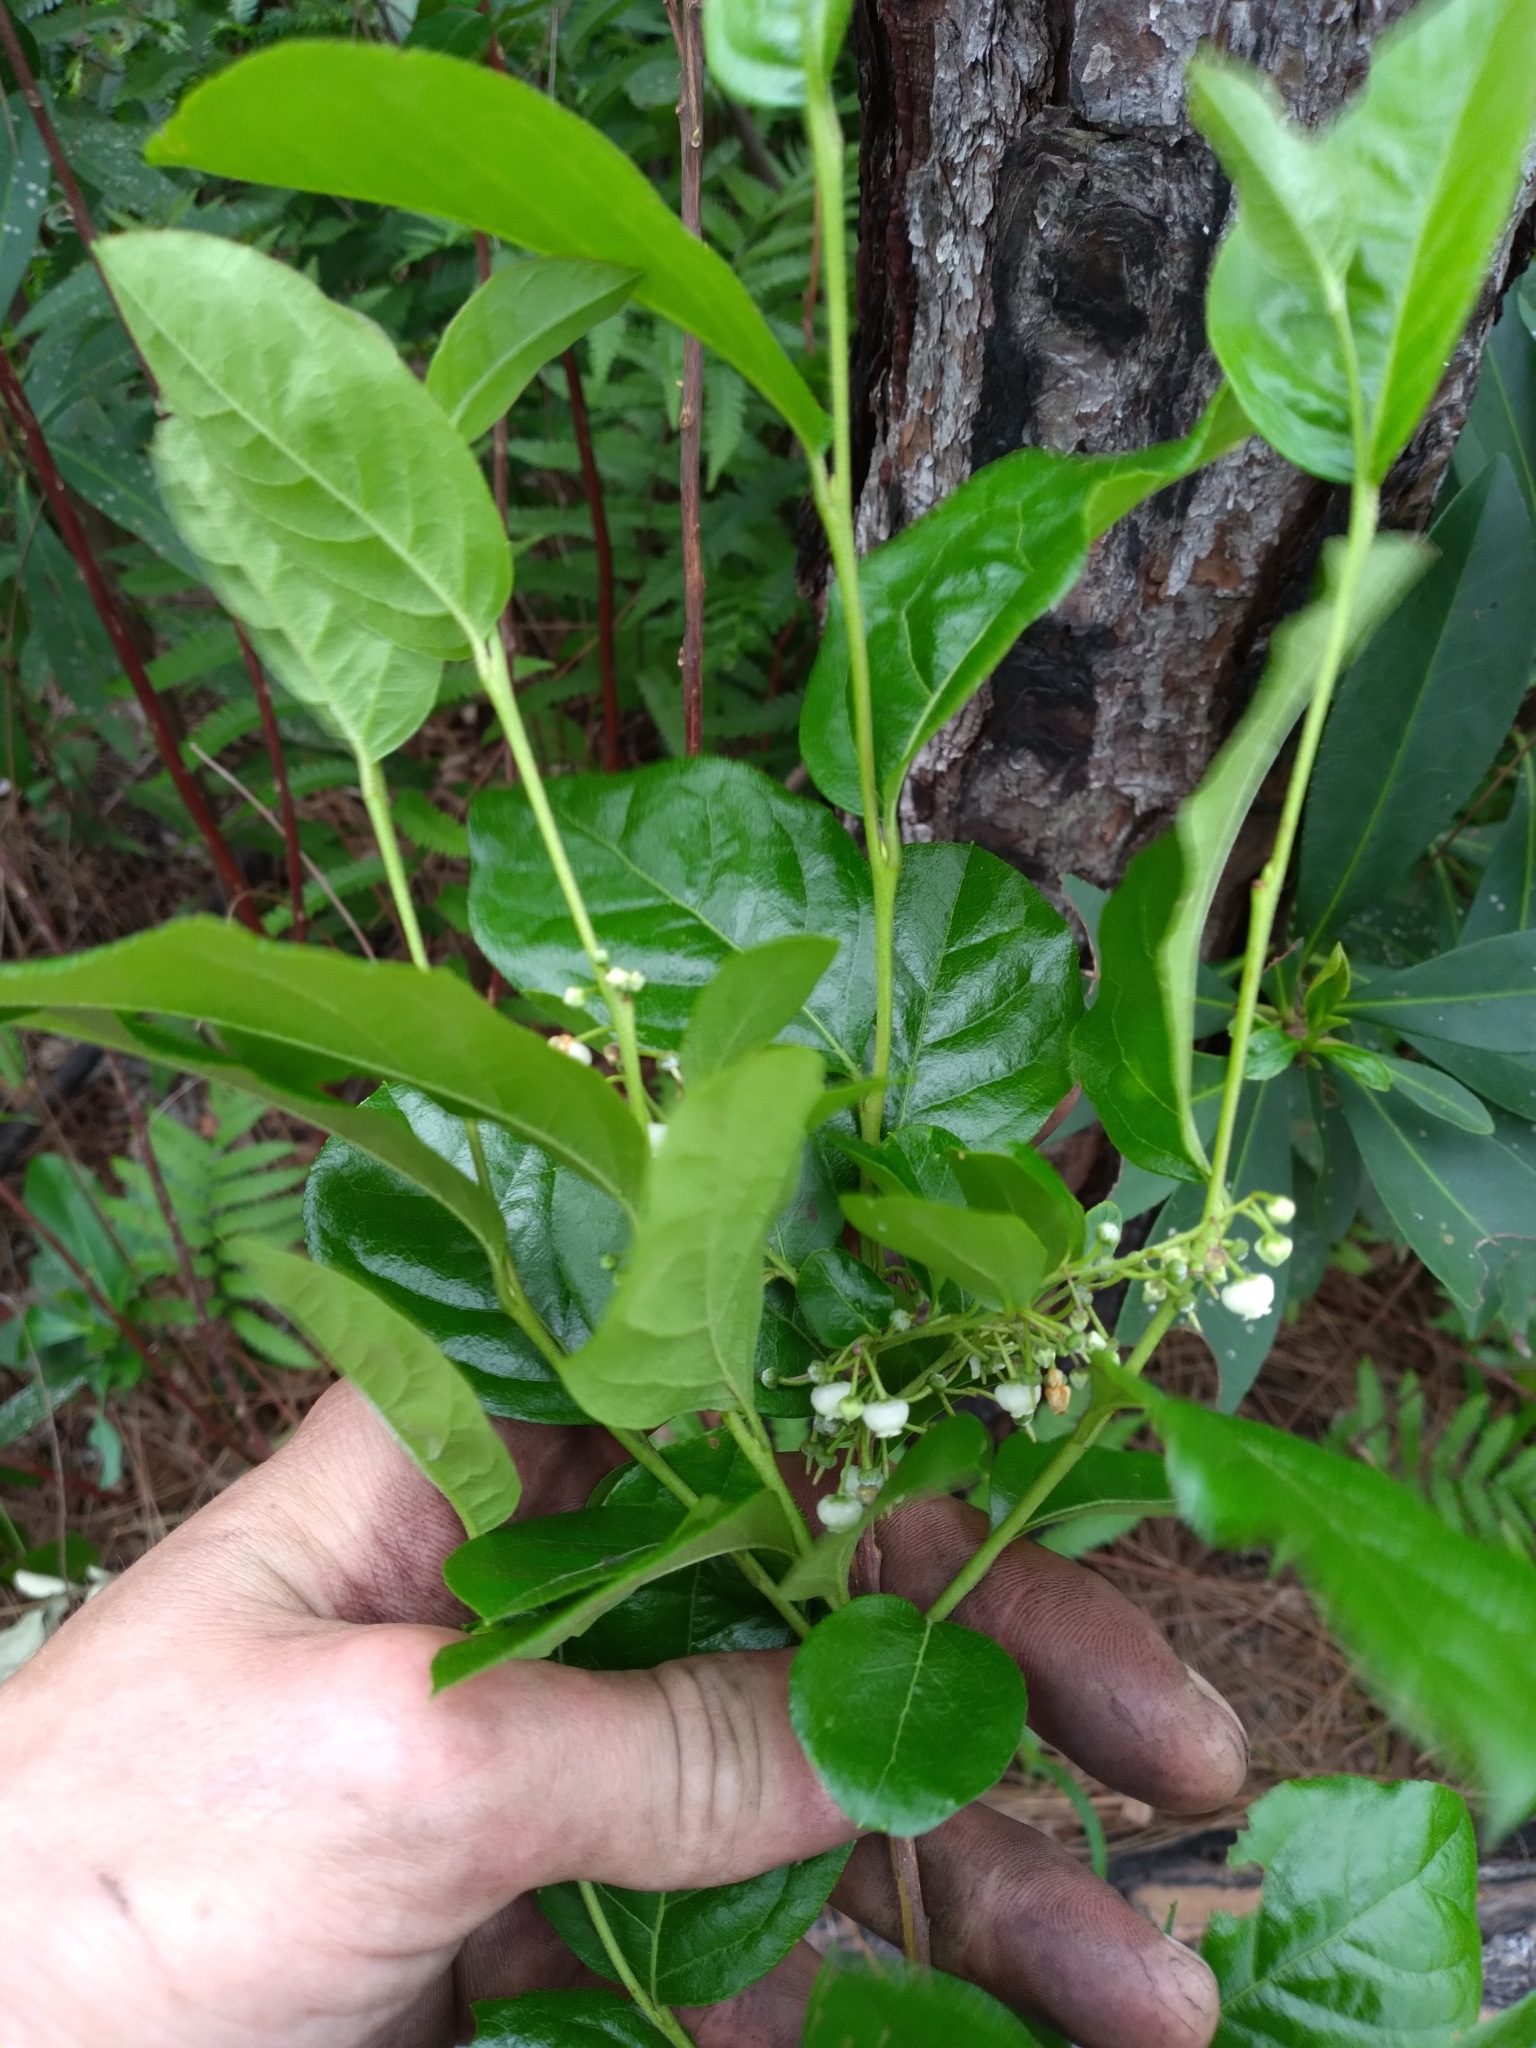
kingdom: Plantae
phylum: Tracheophyta
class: Magnoliopsida
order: Ericales
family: Ericaceae
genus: Lyonia
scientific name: Lyonia ligustrina
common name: Maleberry
